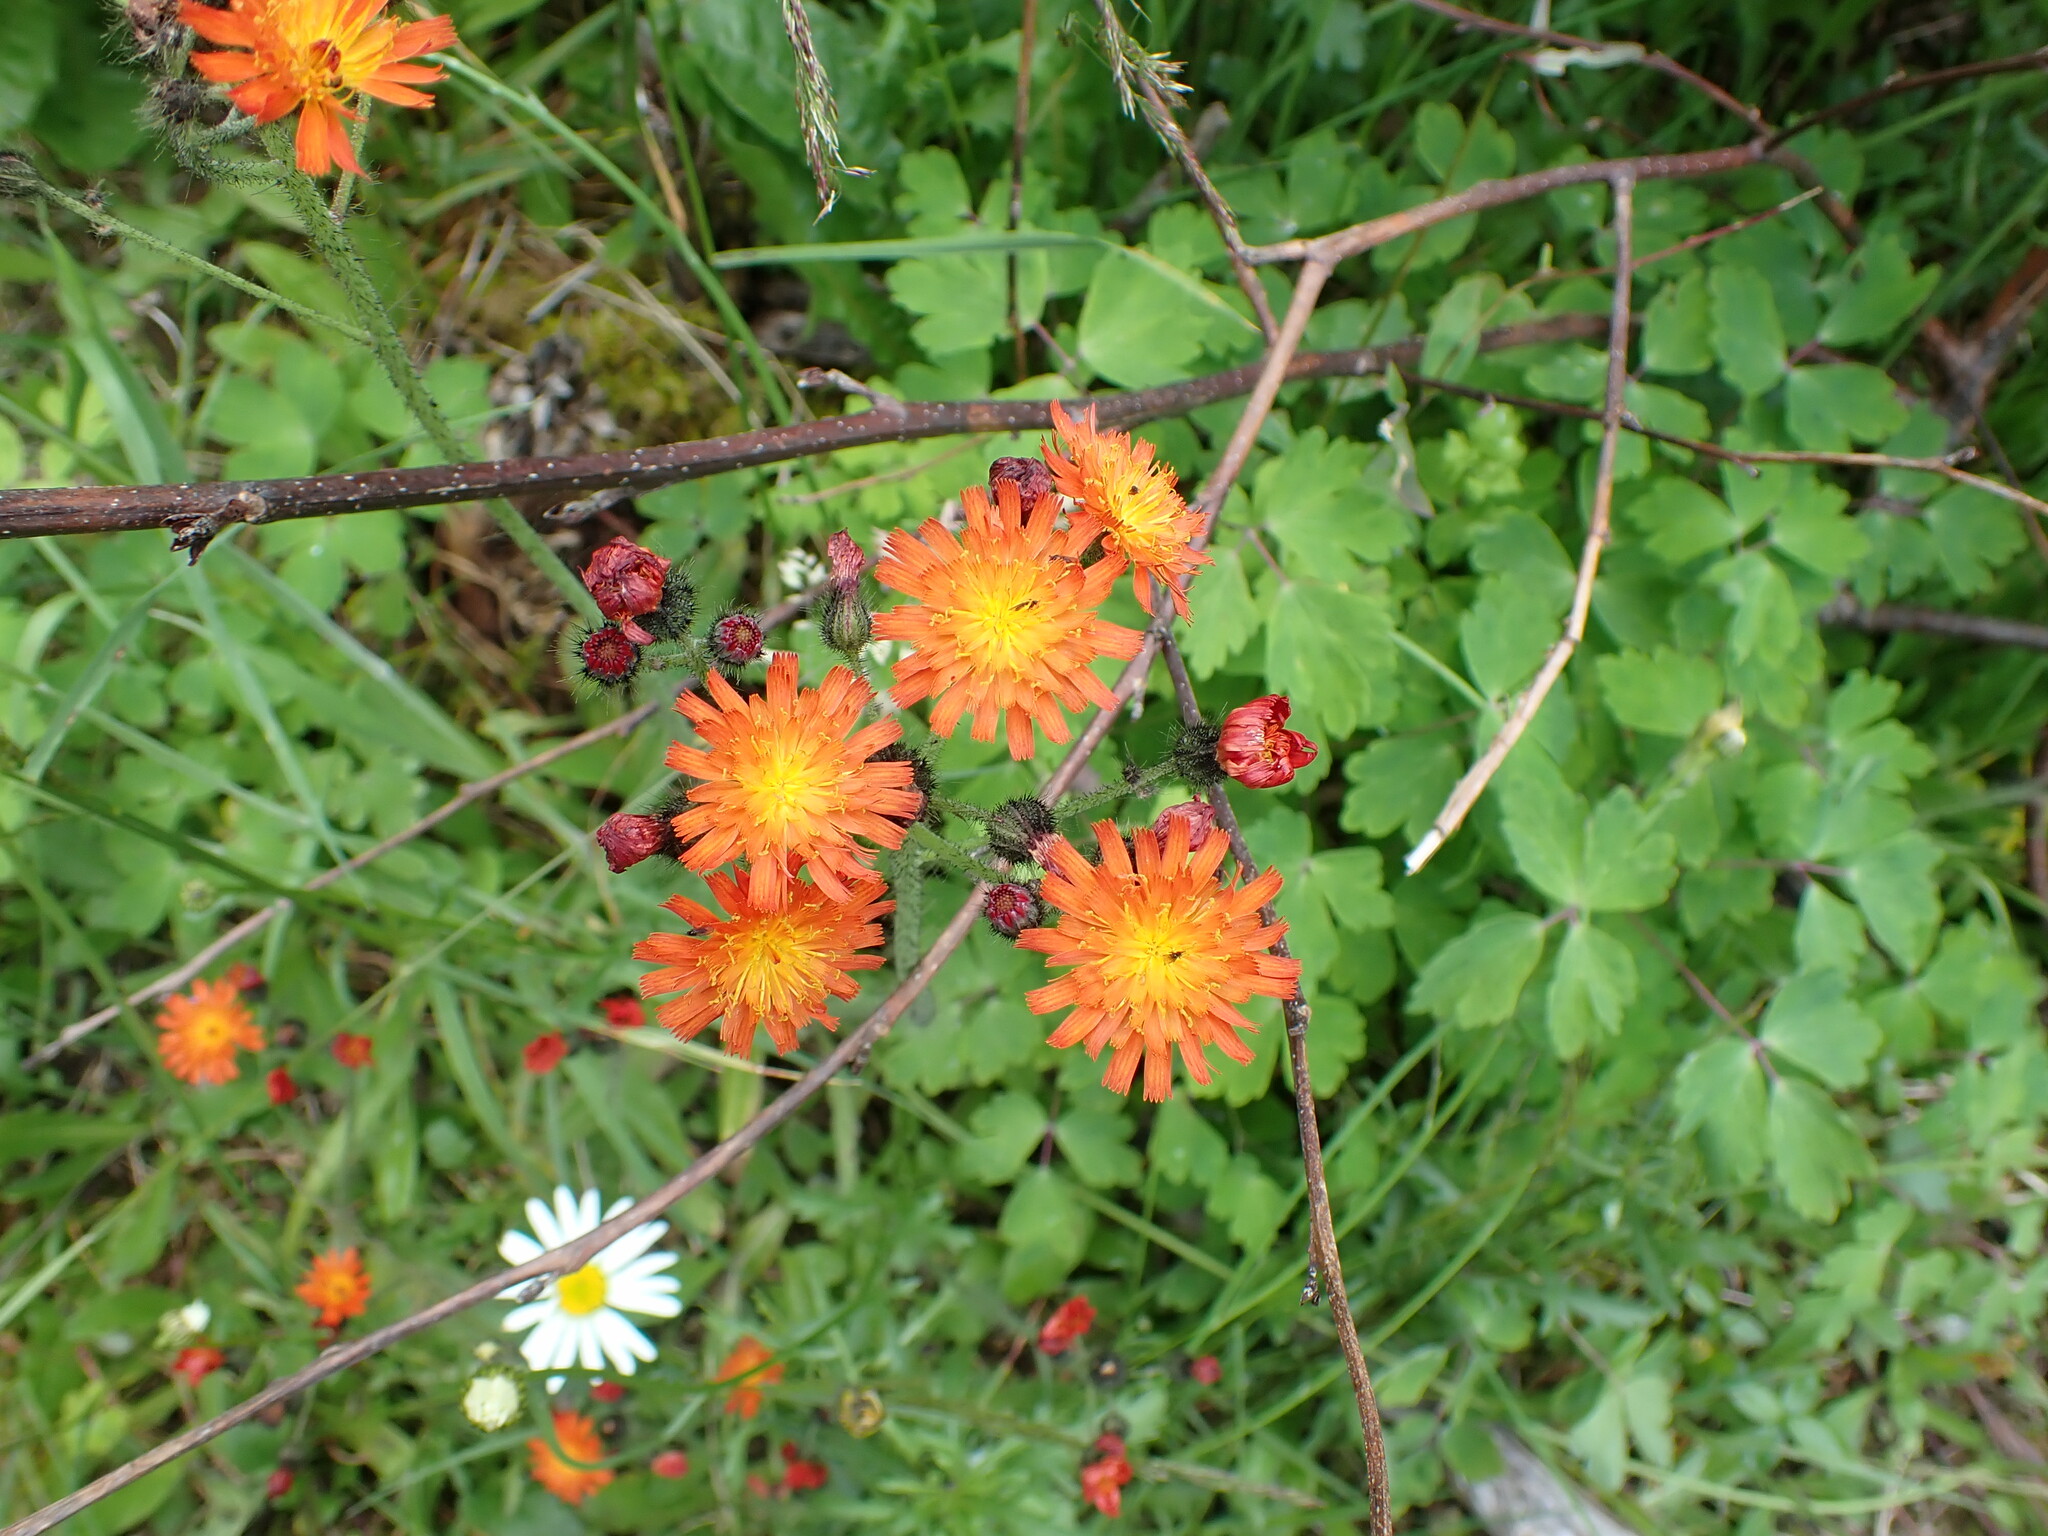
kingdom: Plantae
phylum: Tracheophyta
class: Magnoliopsida
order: Asterales
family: Asteraceae
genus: Pilosella
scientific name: Pilosella aurantiaca
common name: Fox-and-cubs
